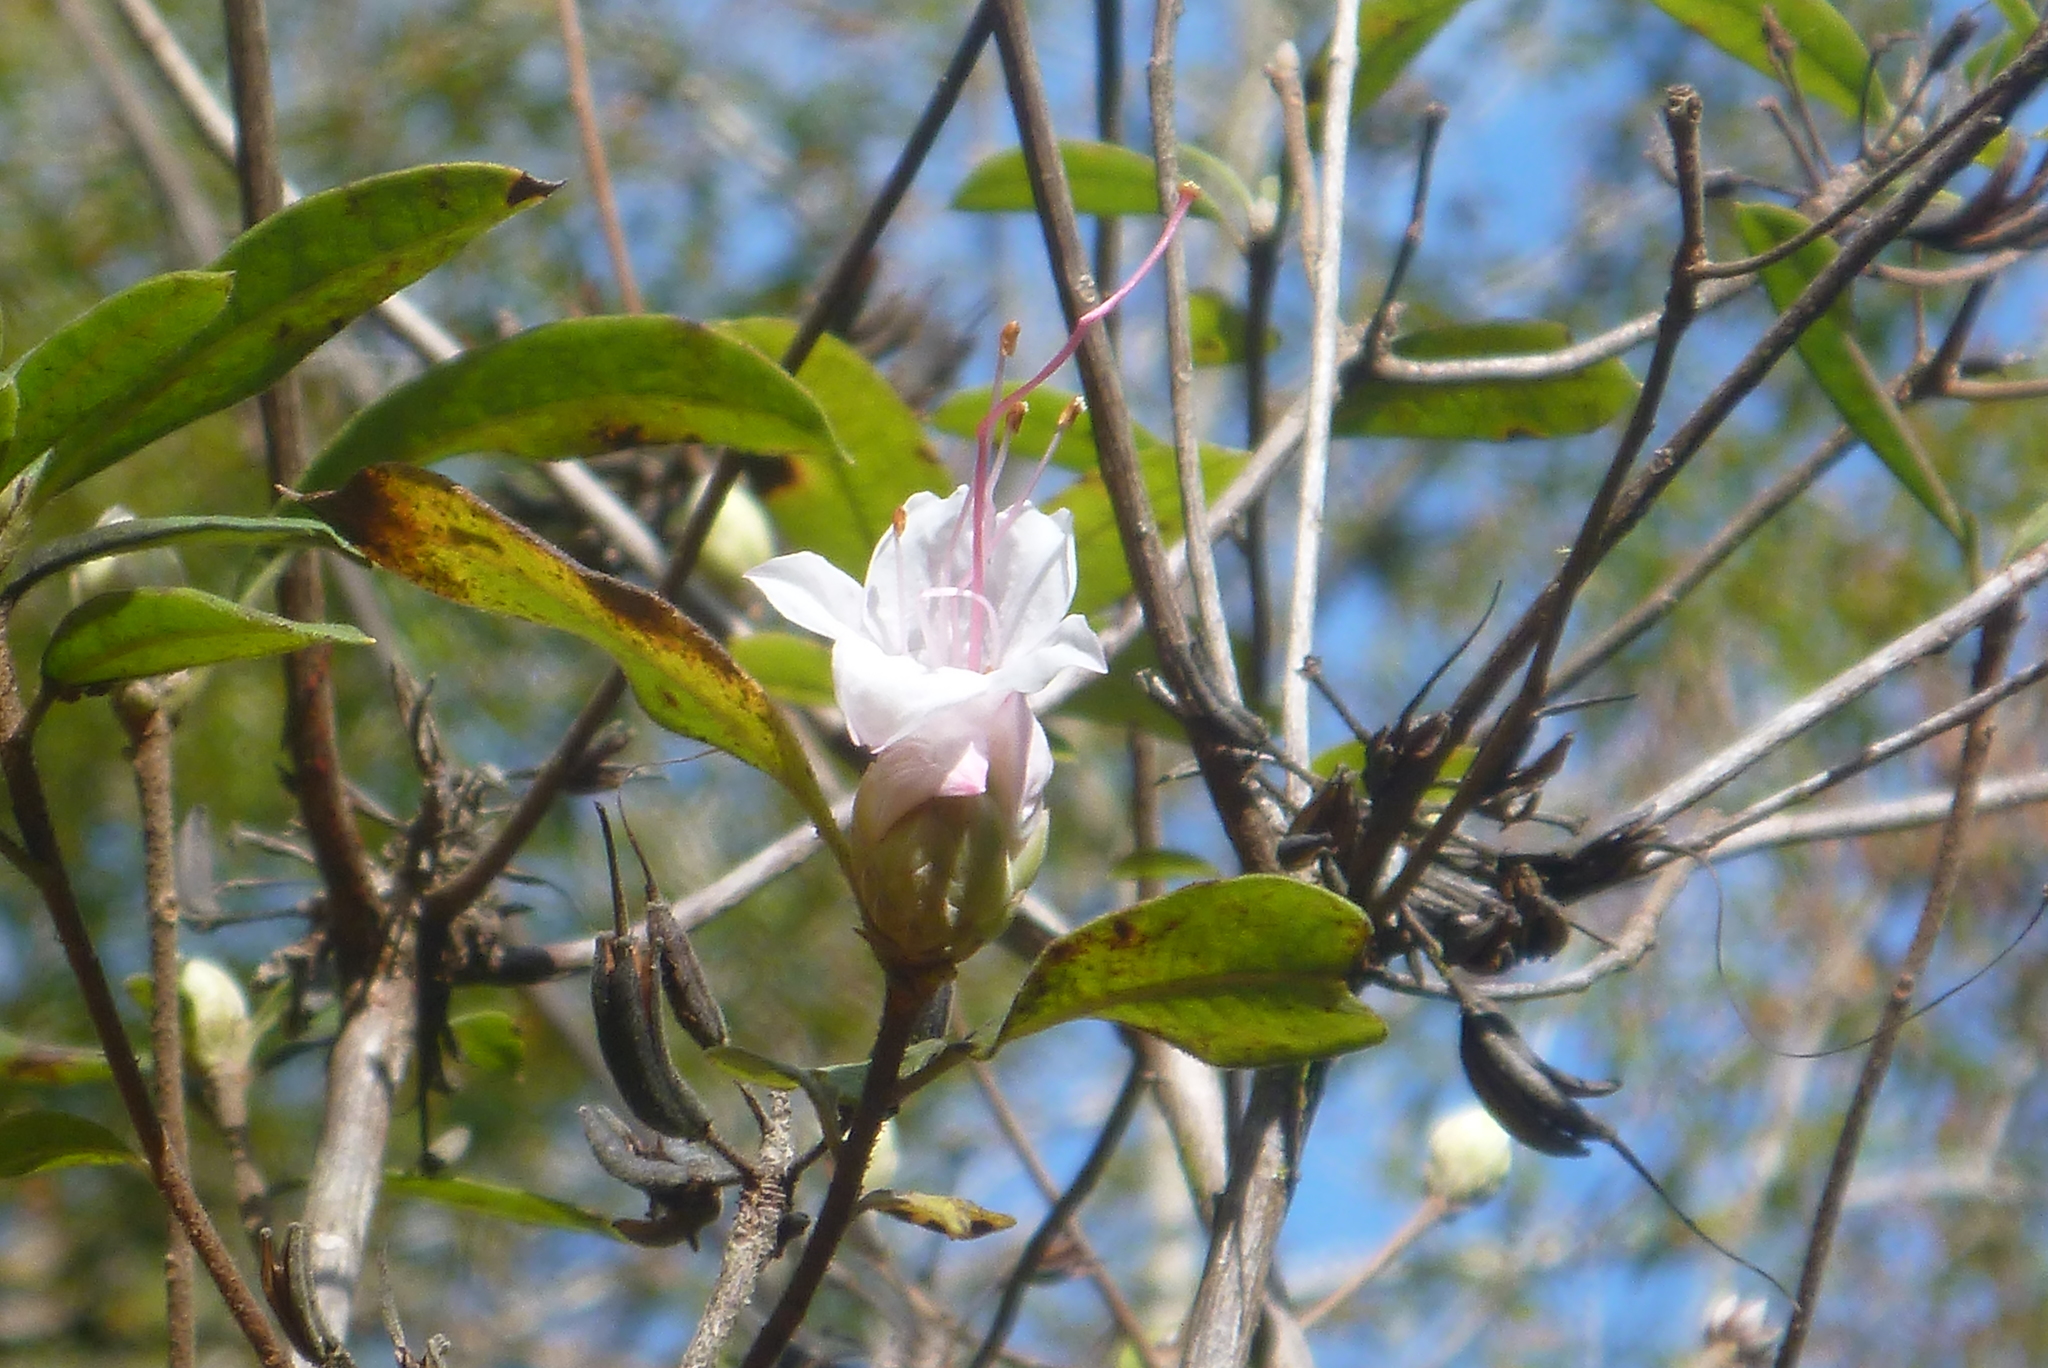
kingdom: Plantae
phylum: Tracheophyta
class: Magnoliopsida
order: Ericales
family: Ericaceae
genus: Rhododendron
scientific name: Rhododendron canescens
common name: Mountain azalea
